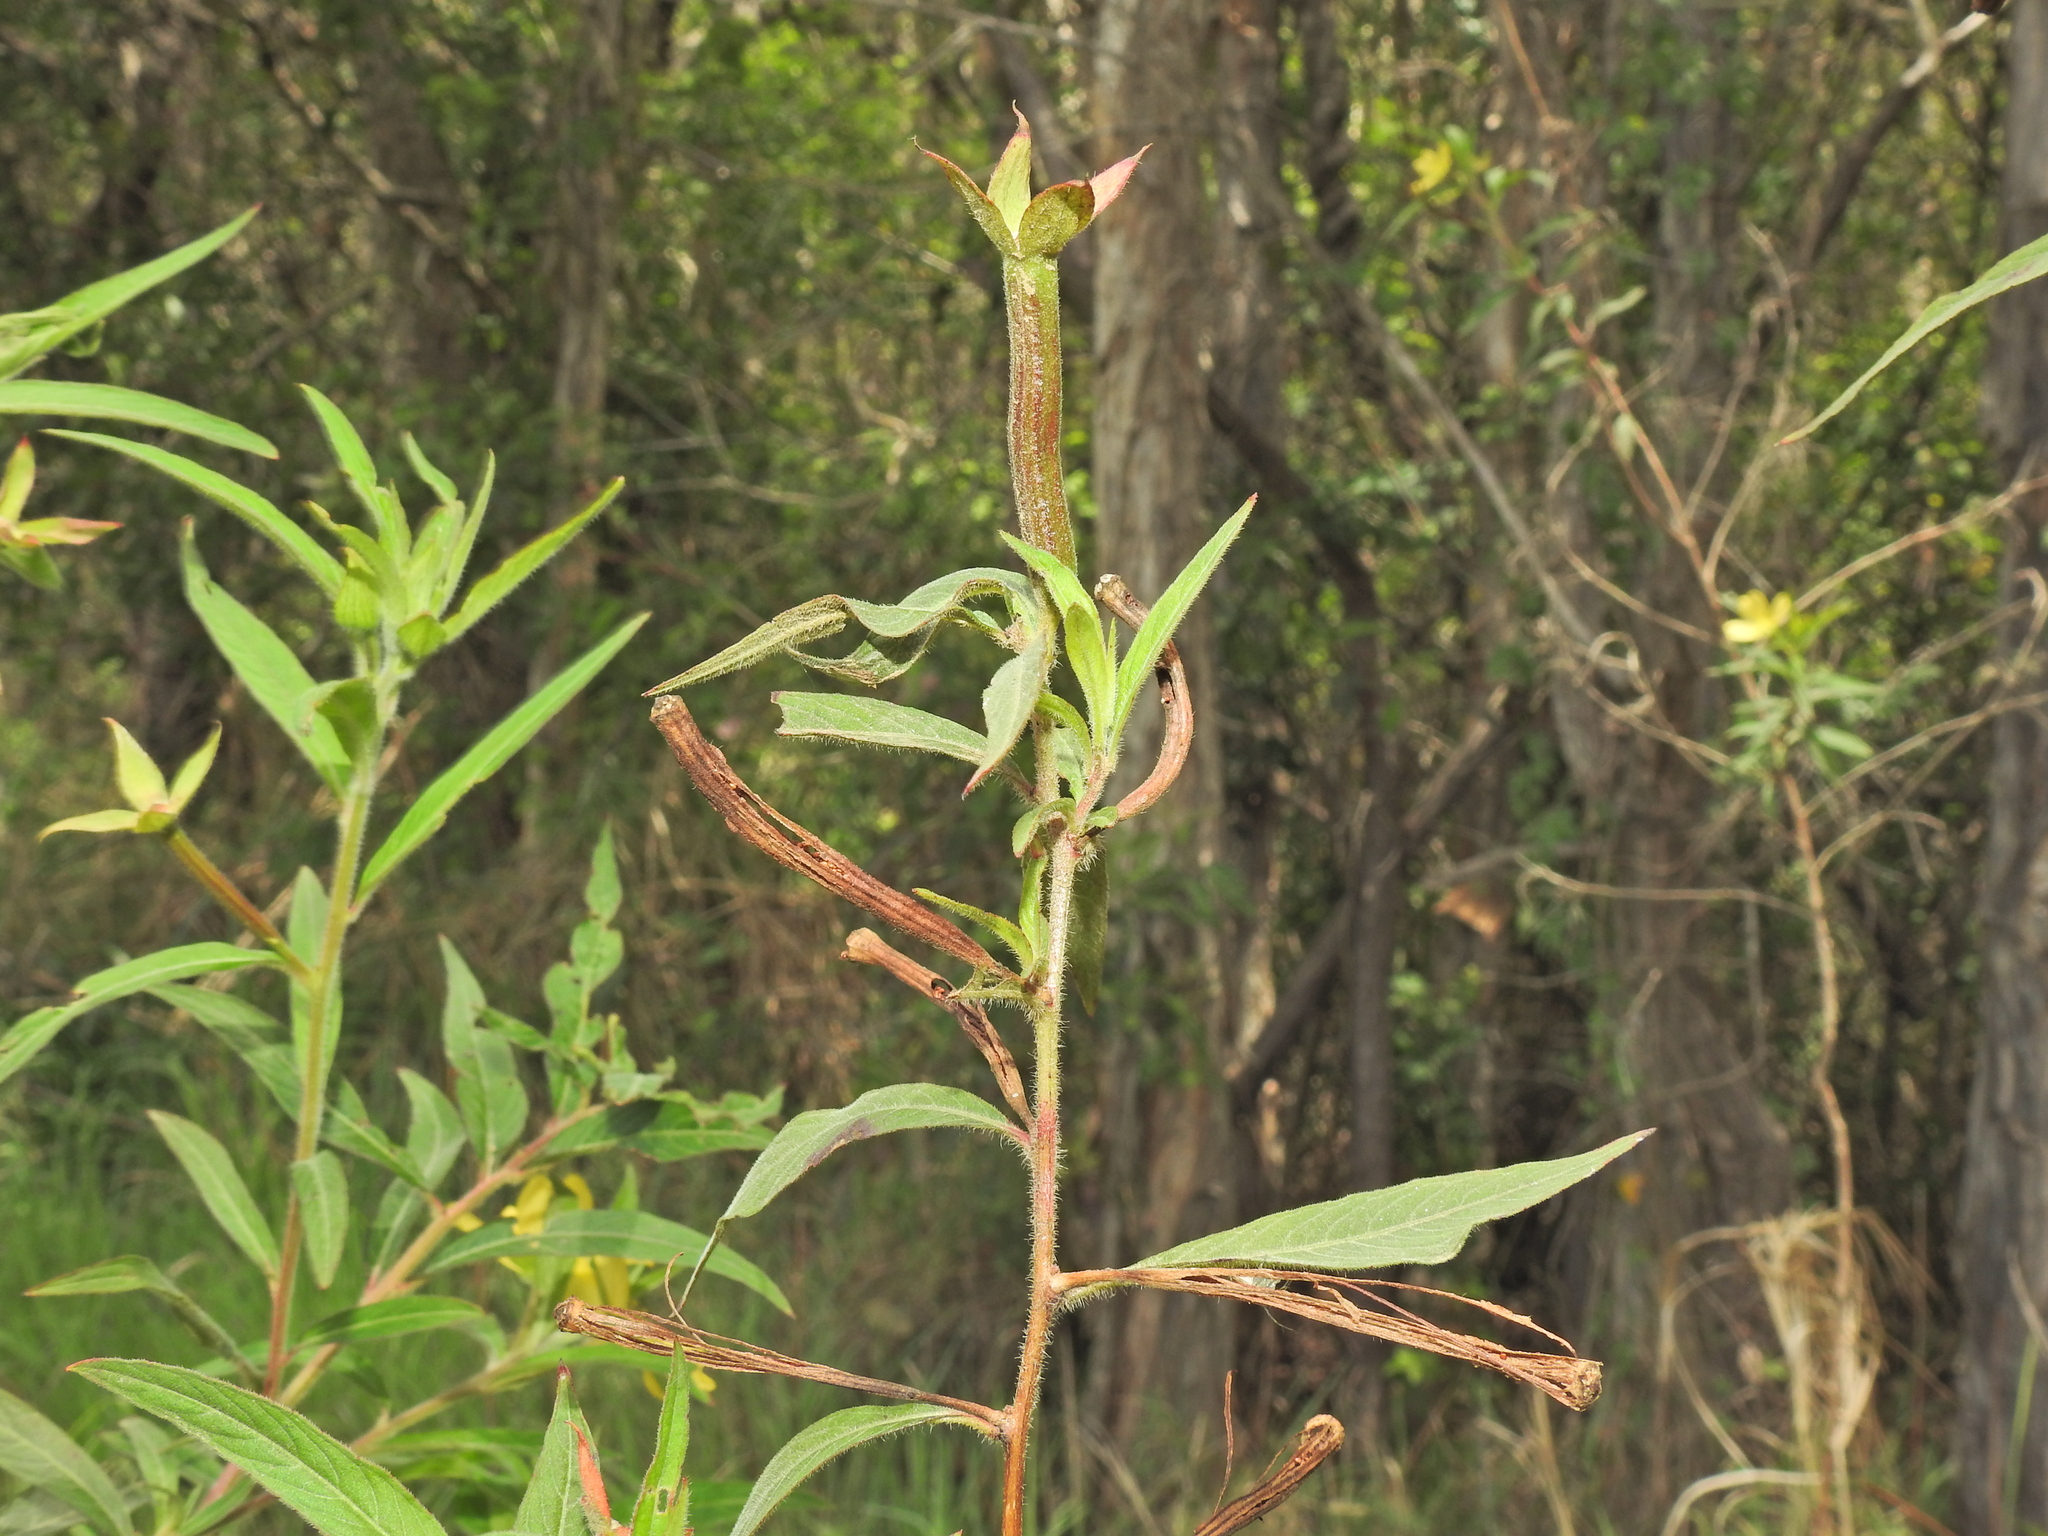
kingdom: Plantae
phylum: Tracheophyta
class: Magnoliopsida
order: Myrtales
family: Onagraceae
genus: Ludwigia
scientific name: Ludwigia octovalvis
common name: Water-primrose
